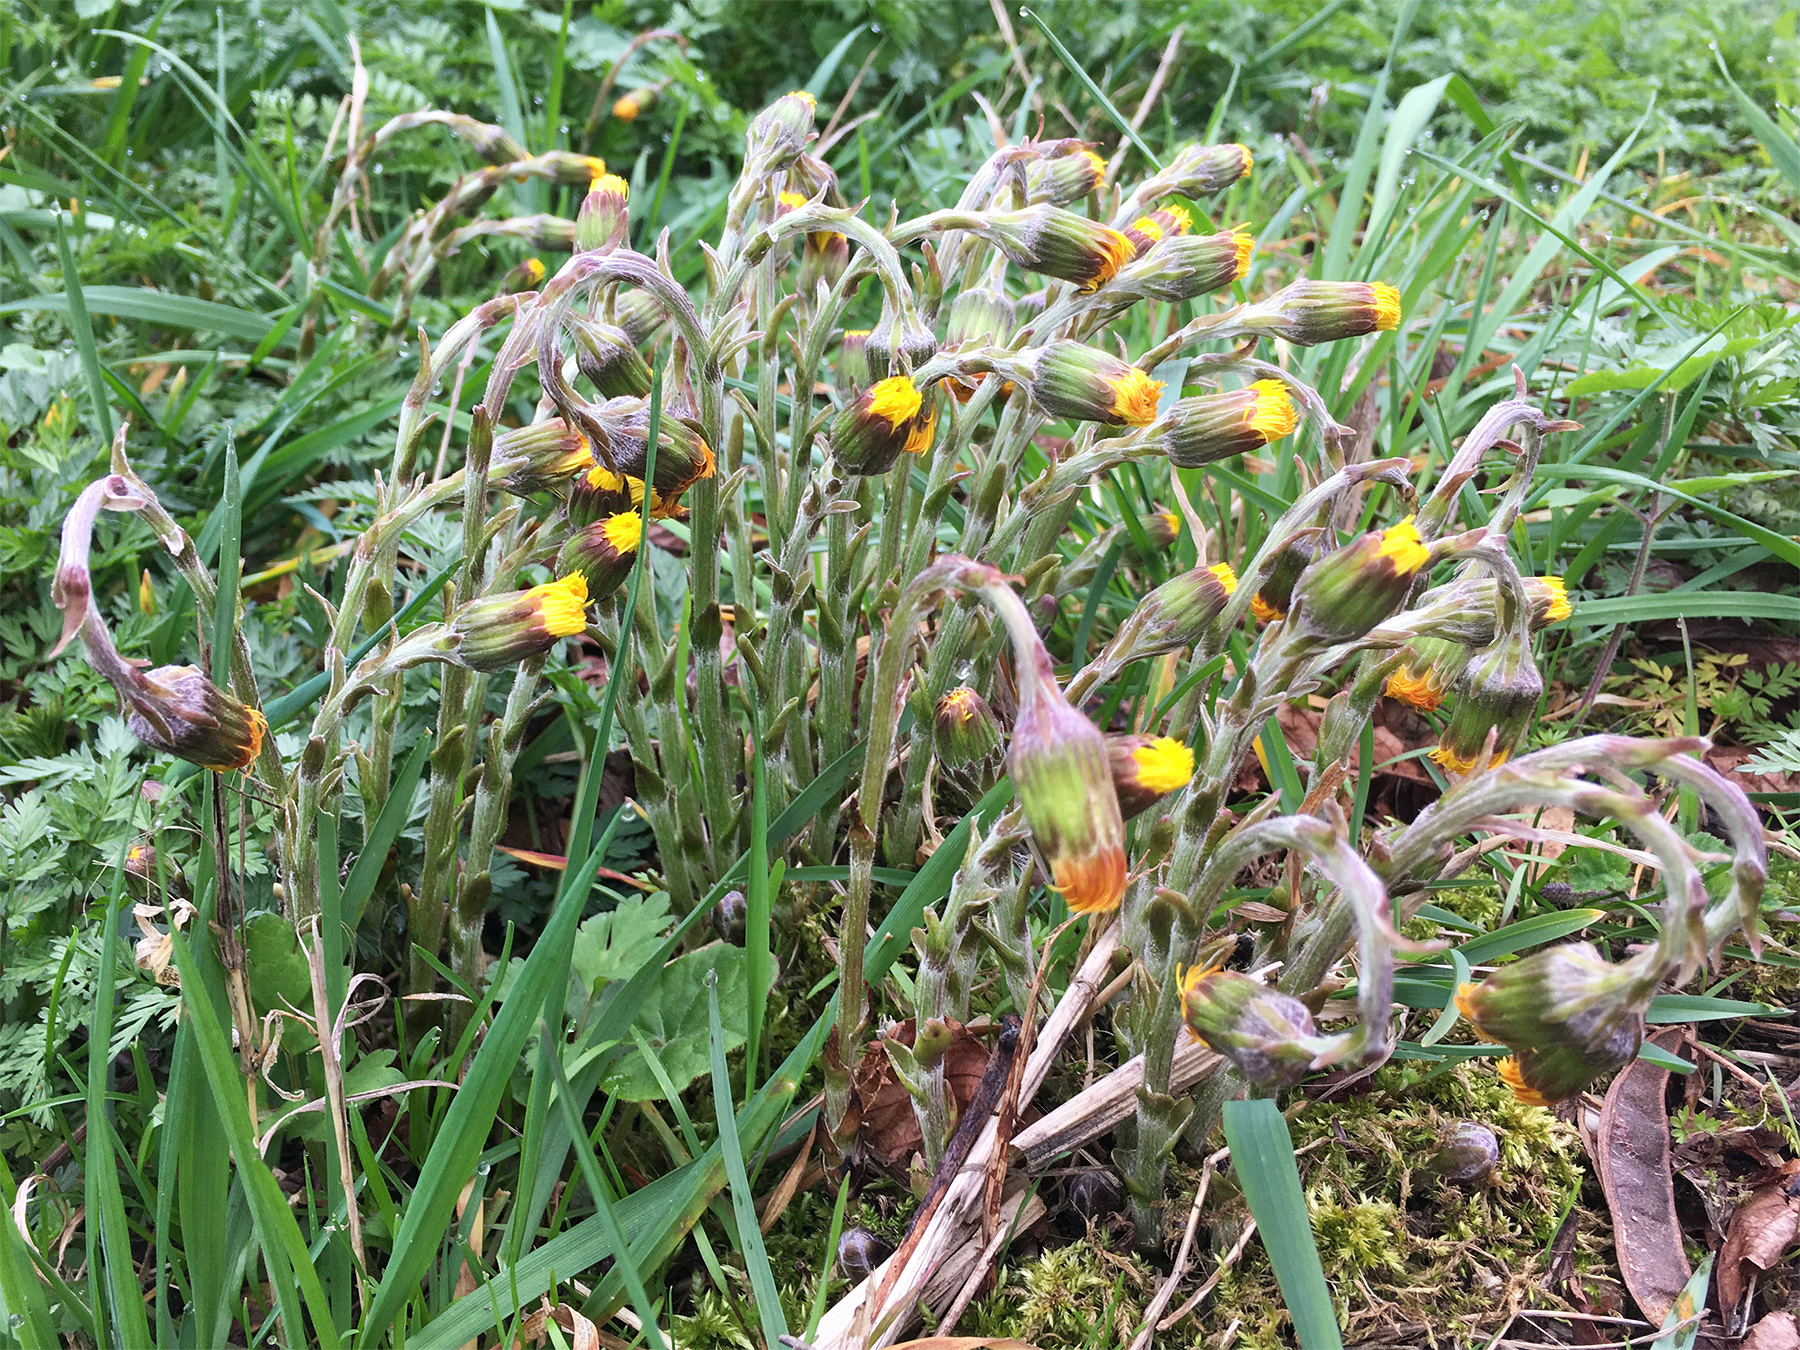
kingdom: Plantae
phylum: Tracheophyta
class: Magnoliopsida
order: Asterales
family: Asteraceae
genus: Tussilago
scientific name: Tussilago farfara
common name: Coltsfoot
